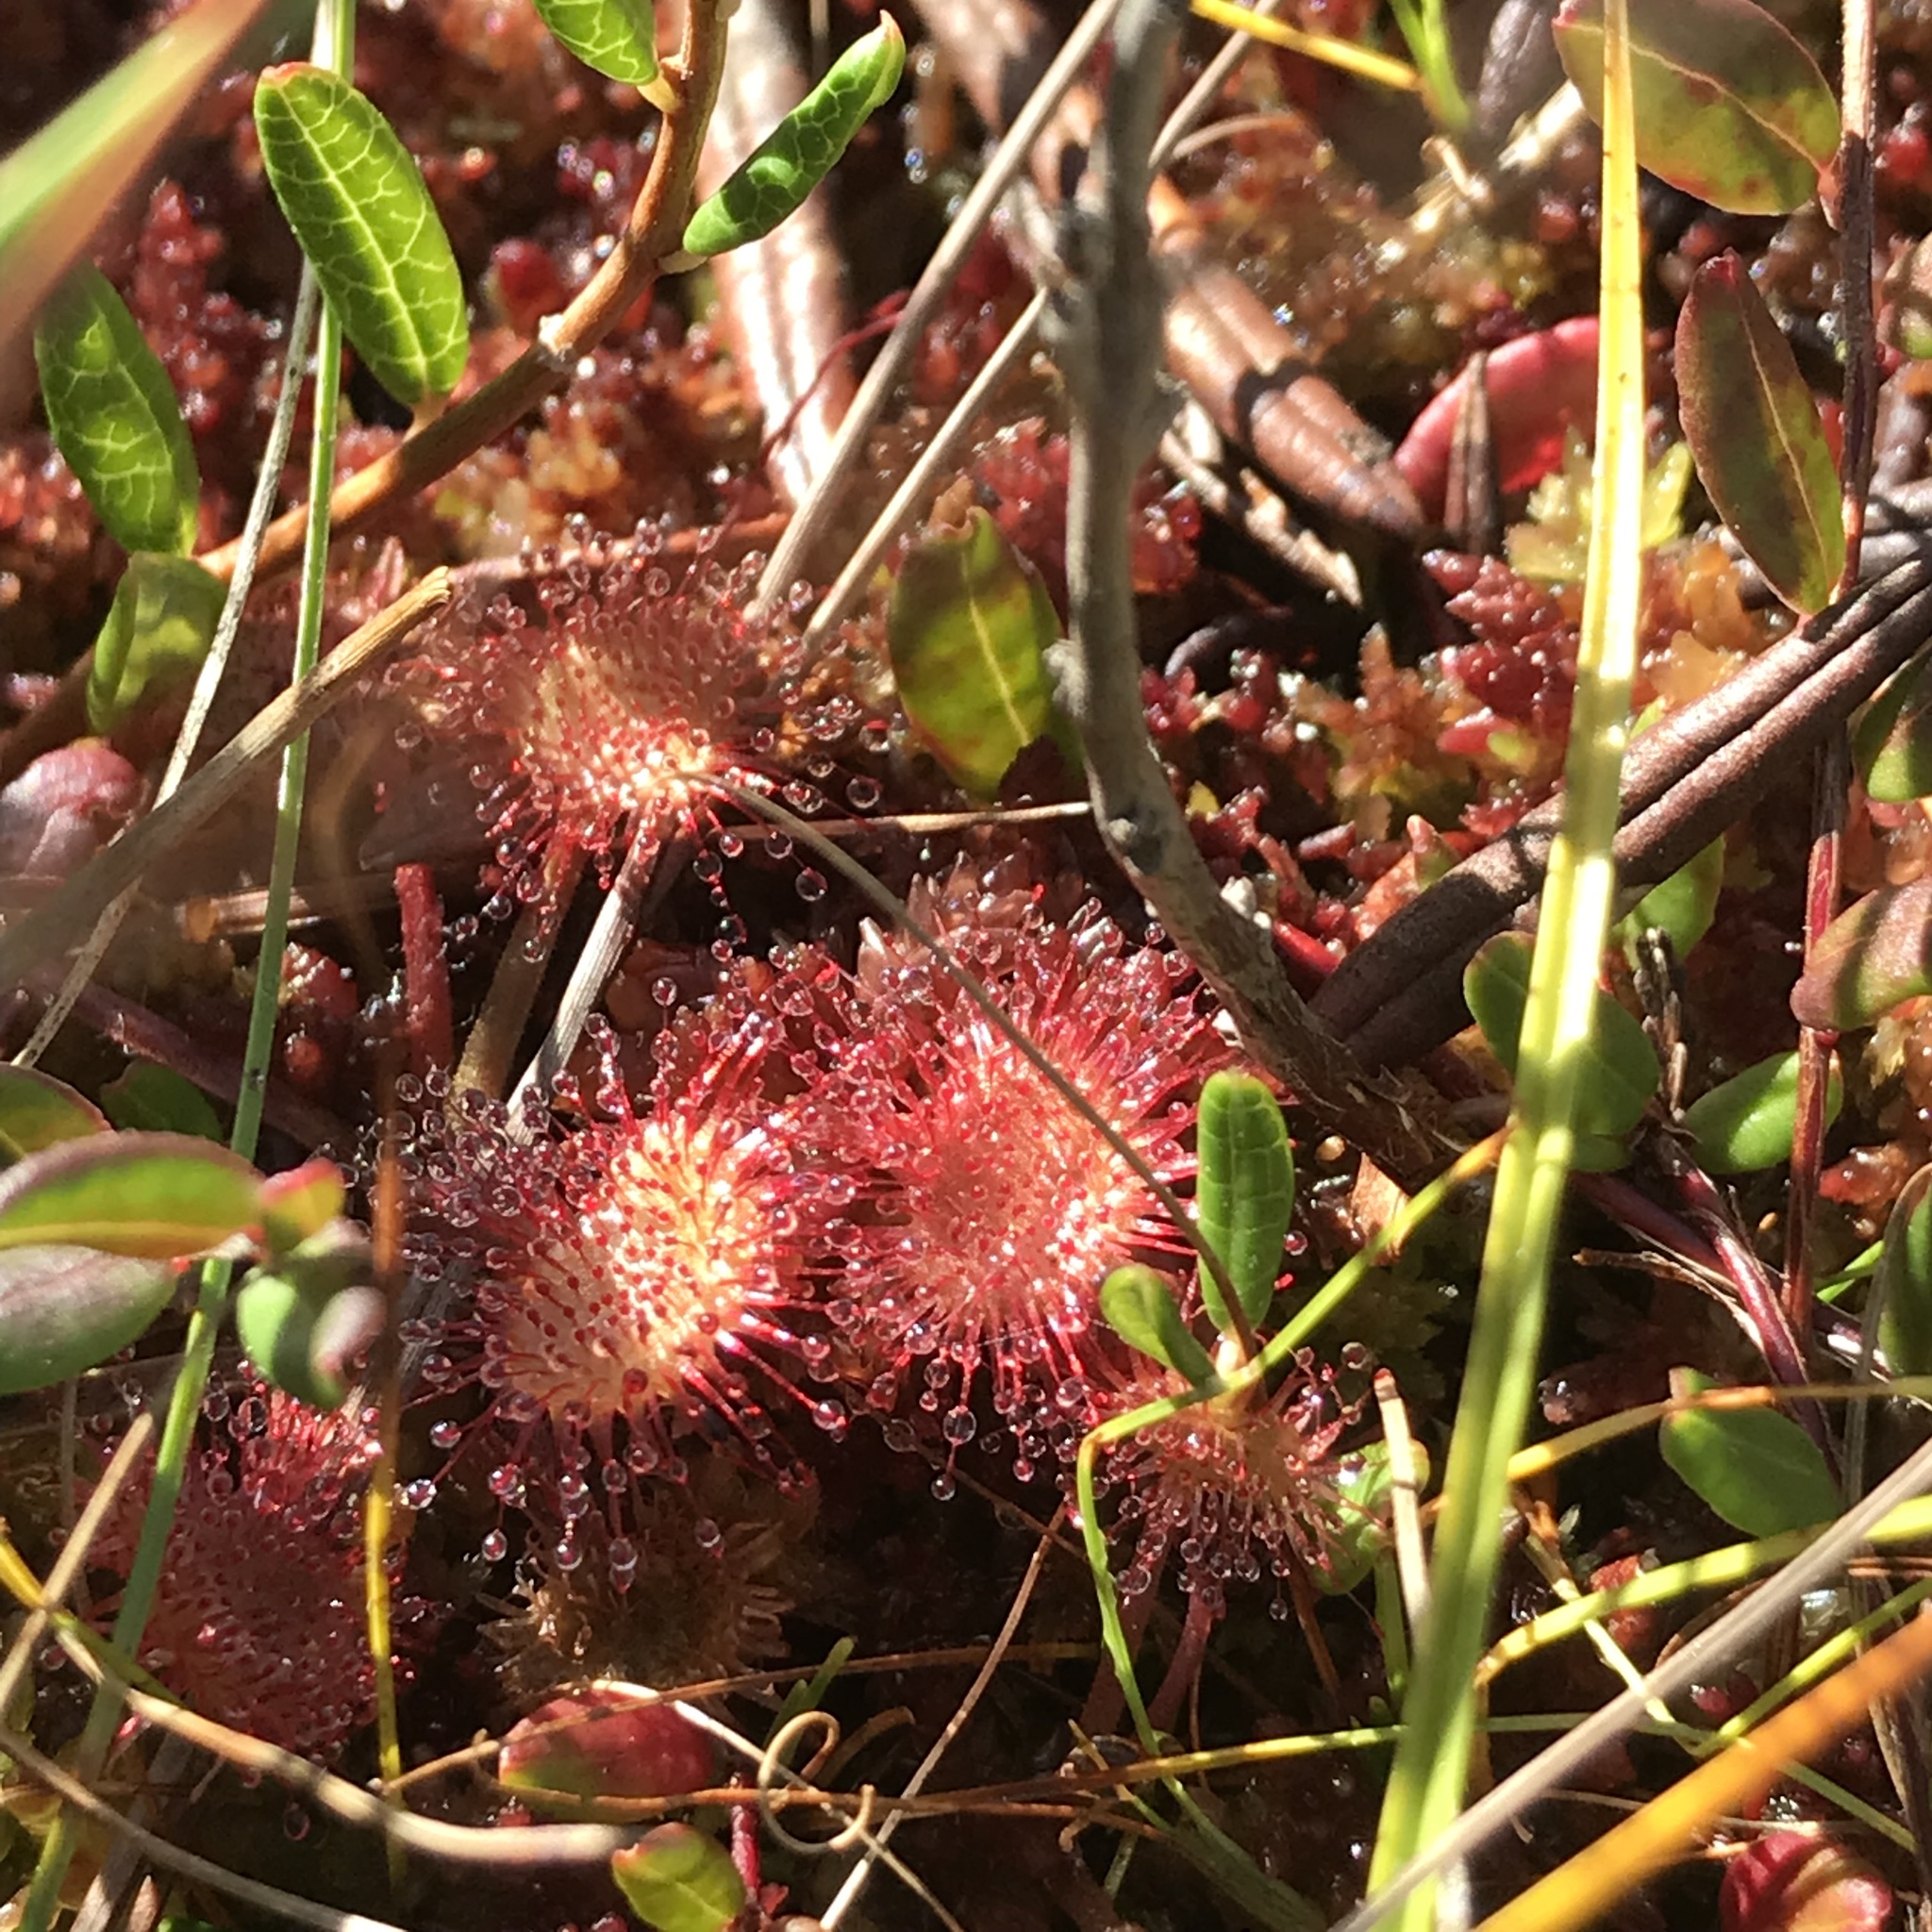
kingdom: Plantae
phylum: Tracheophyta
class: Magnoliopsida
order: Caryophyllales
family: Droseraceae
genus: Drosera
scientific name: Drosera rotundifolia
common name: Round-leaved sundew
